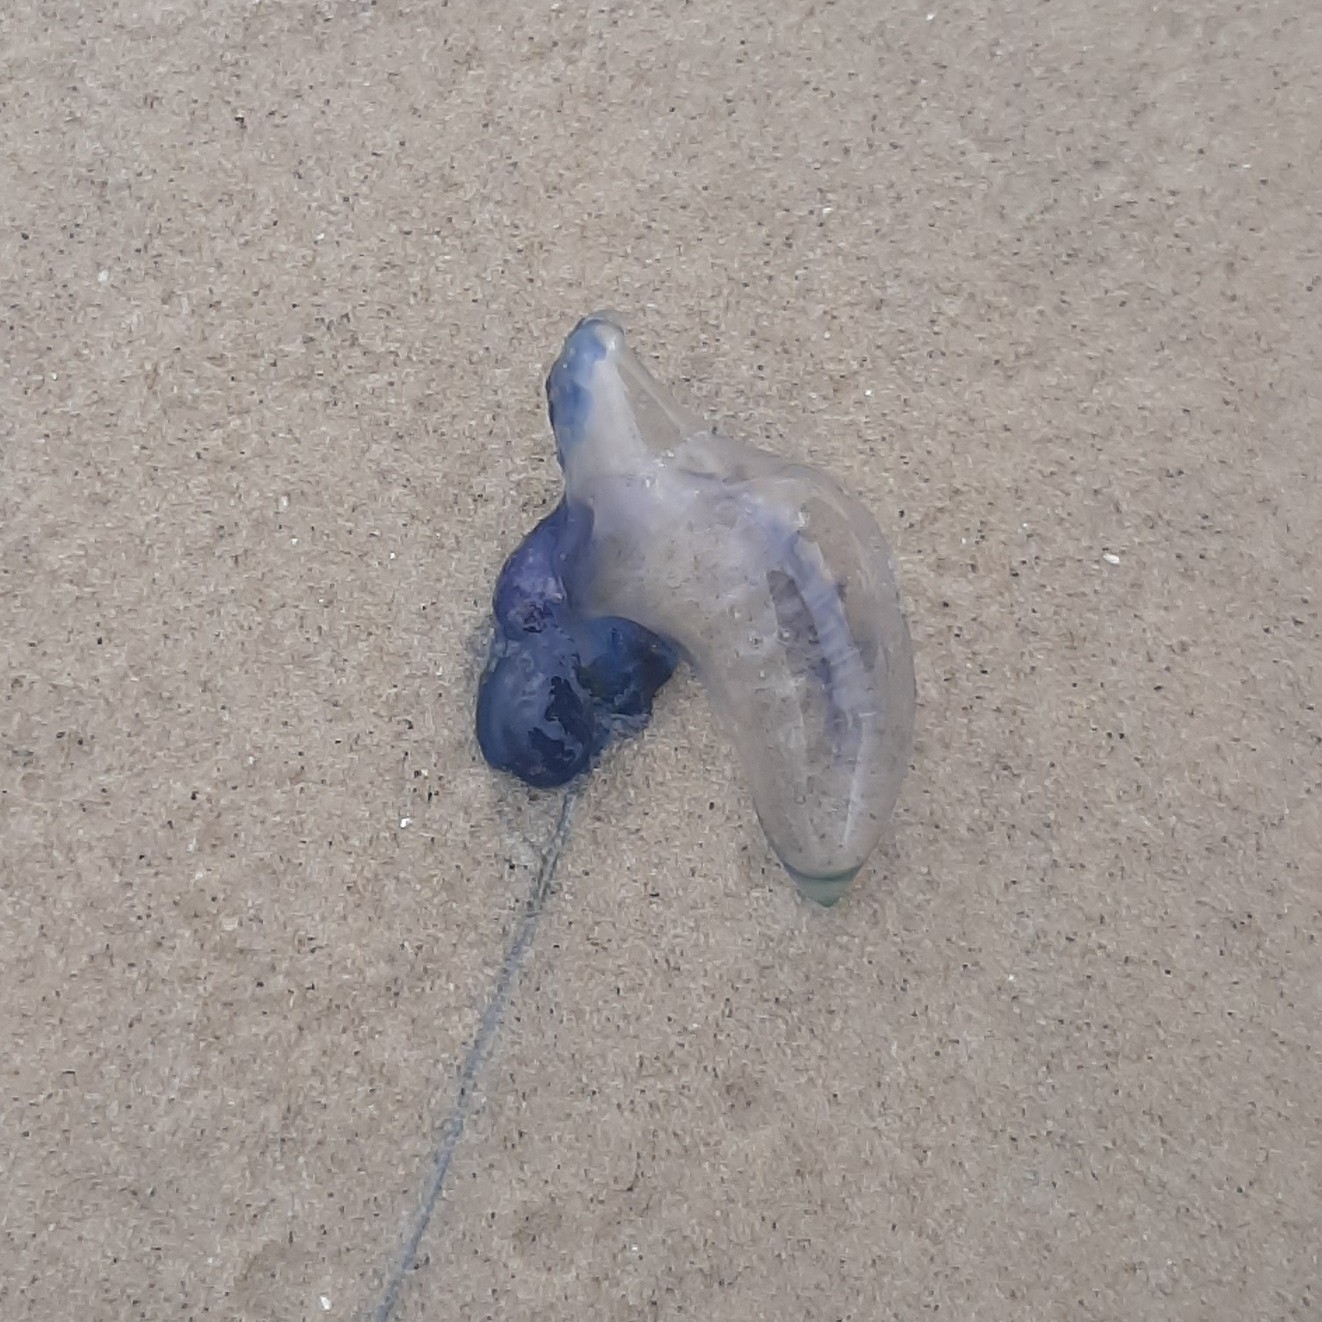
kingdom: Animalia
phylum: Cnidaria
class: Hydrozoa
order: Siphonophorae
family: Physaliidae
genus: Physalia
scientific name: Physalia physalis
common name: Portuguese man-of-war
